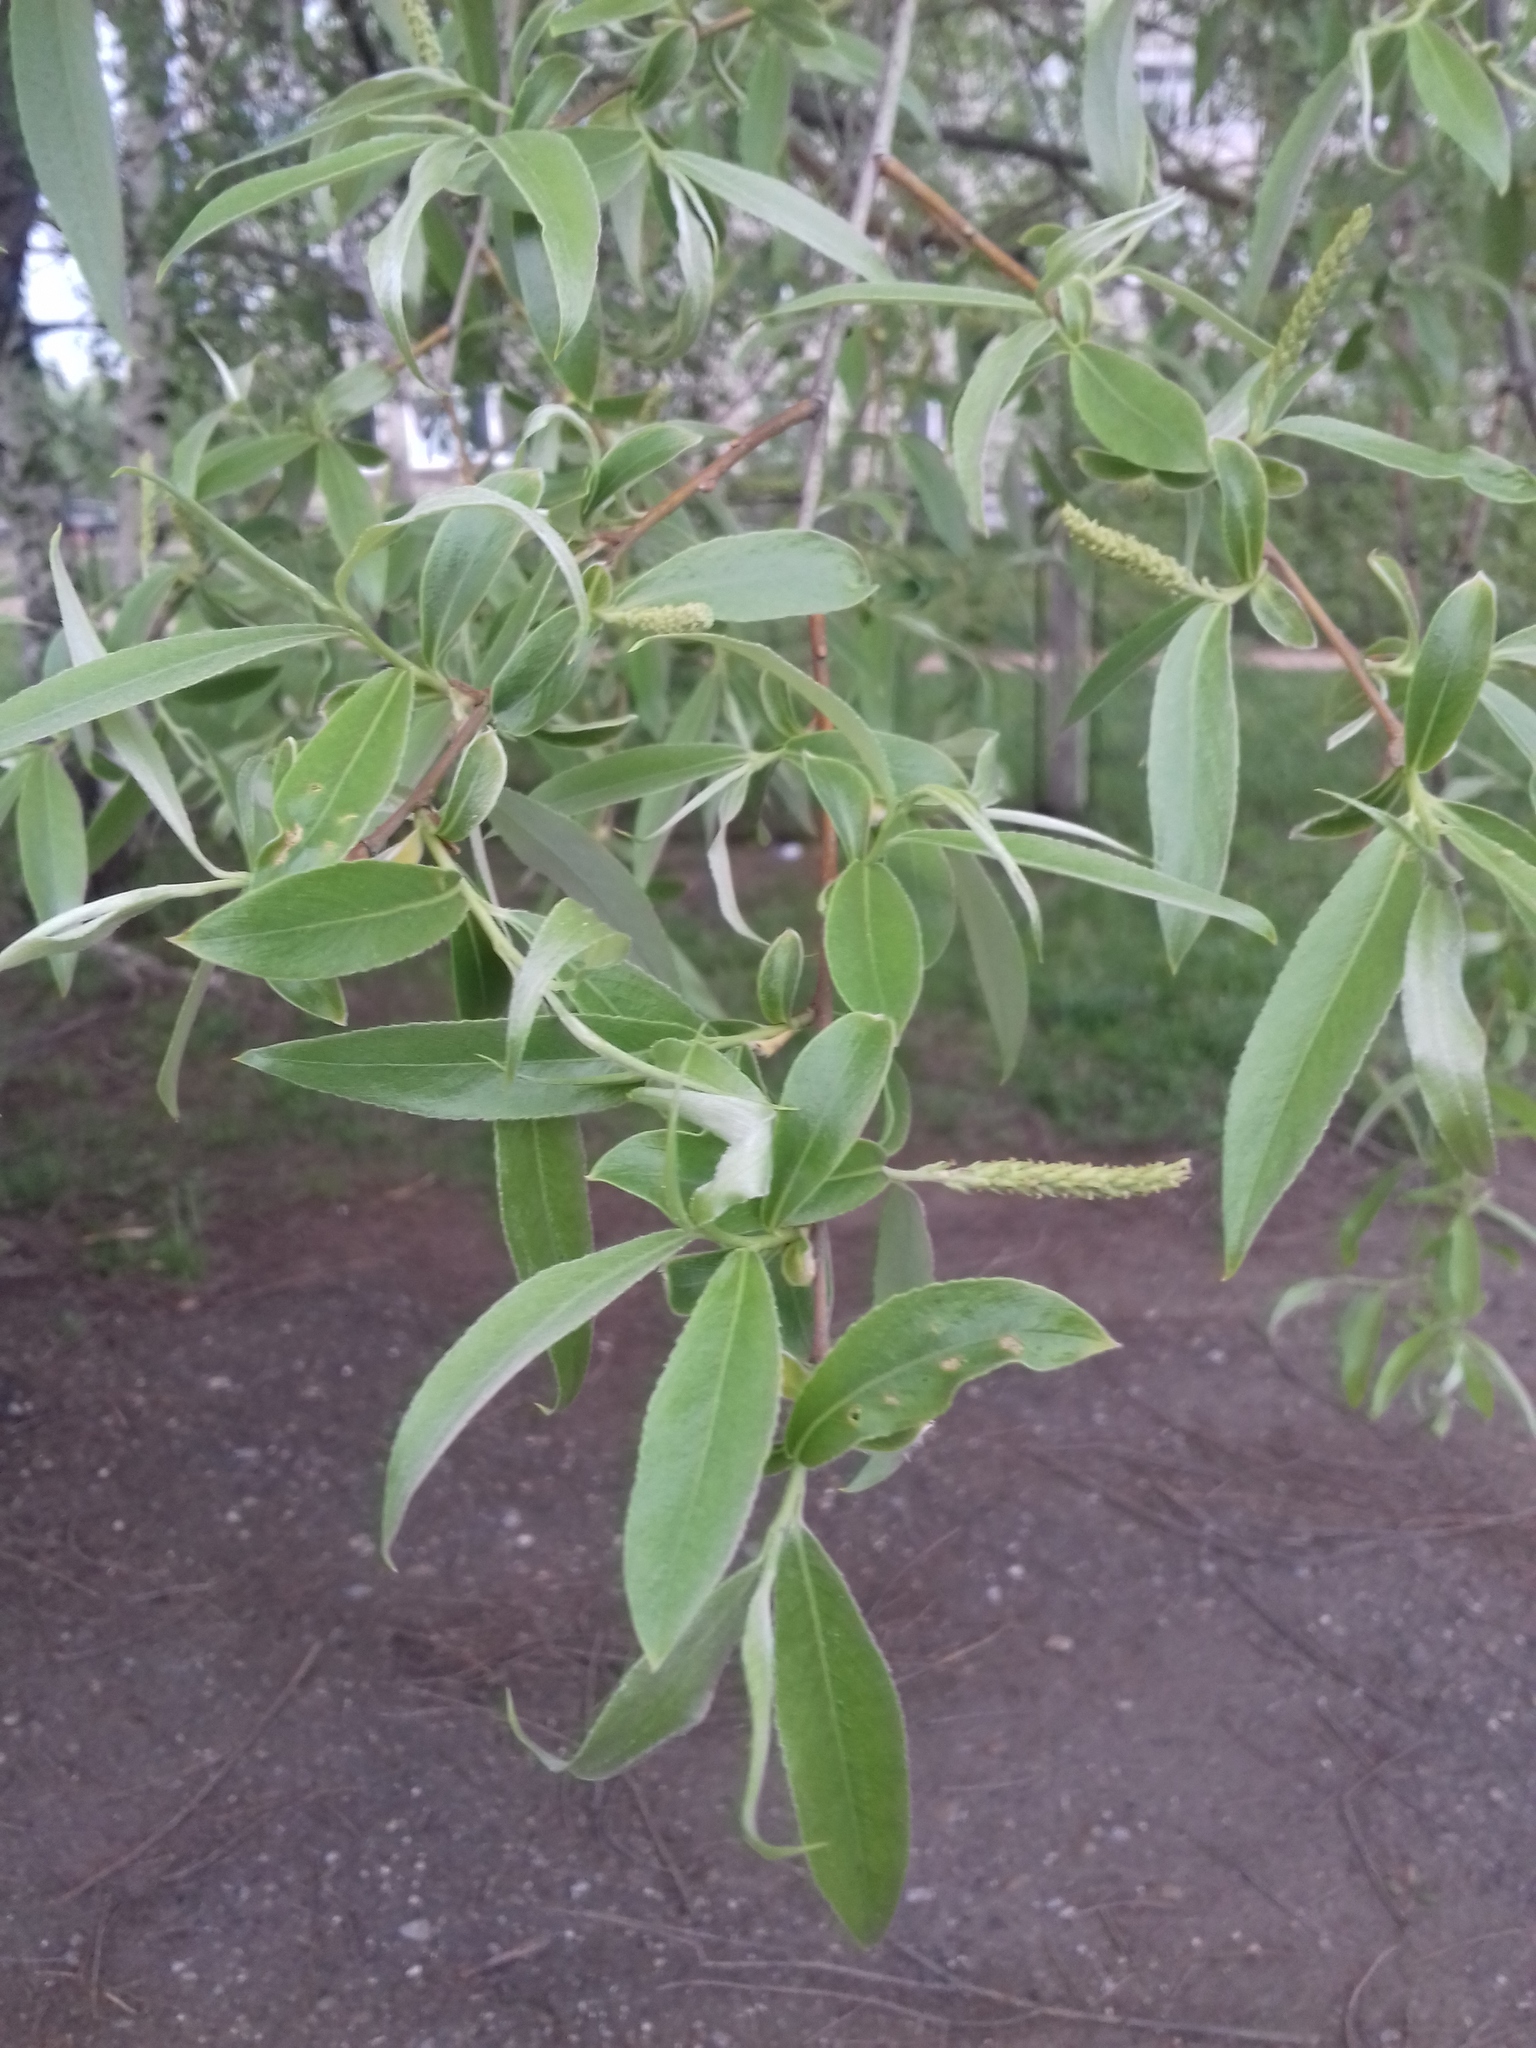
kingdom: Plantae
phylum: Tracheophyta
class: Magnoliopsida
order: Malpighiales
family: Salicaceae
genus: Salix
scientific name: Salix alba
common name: White willow
